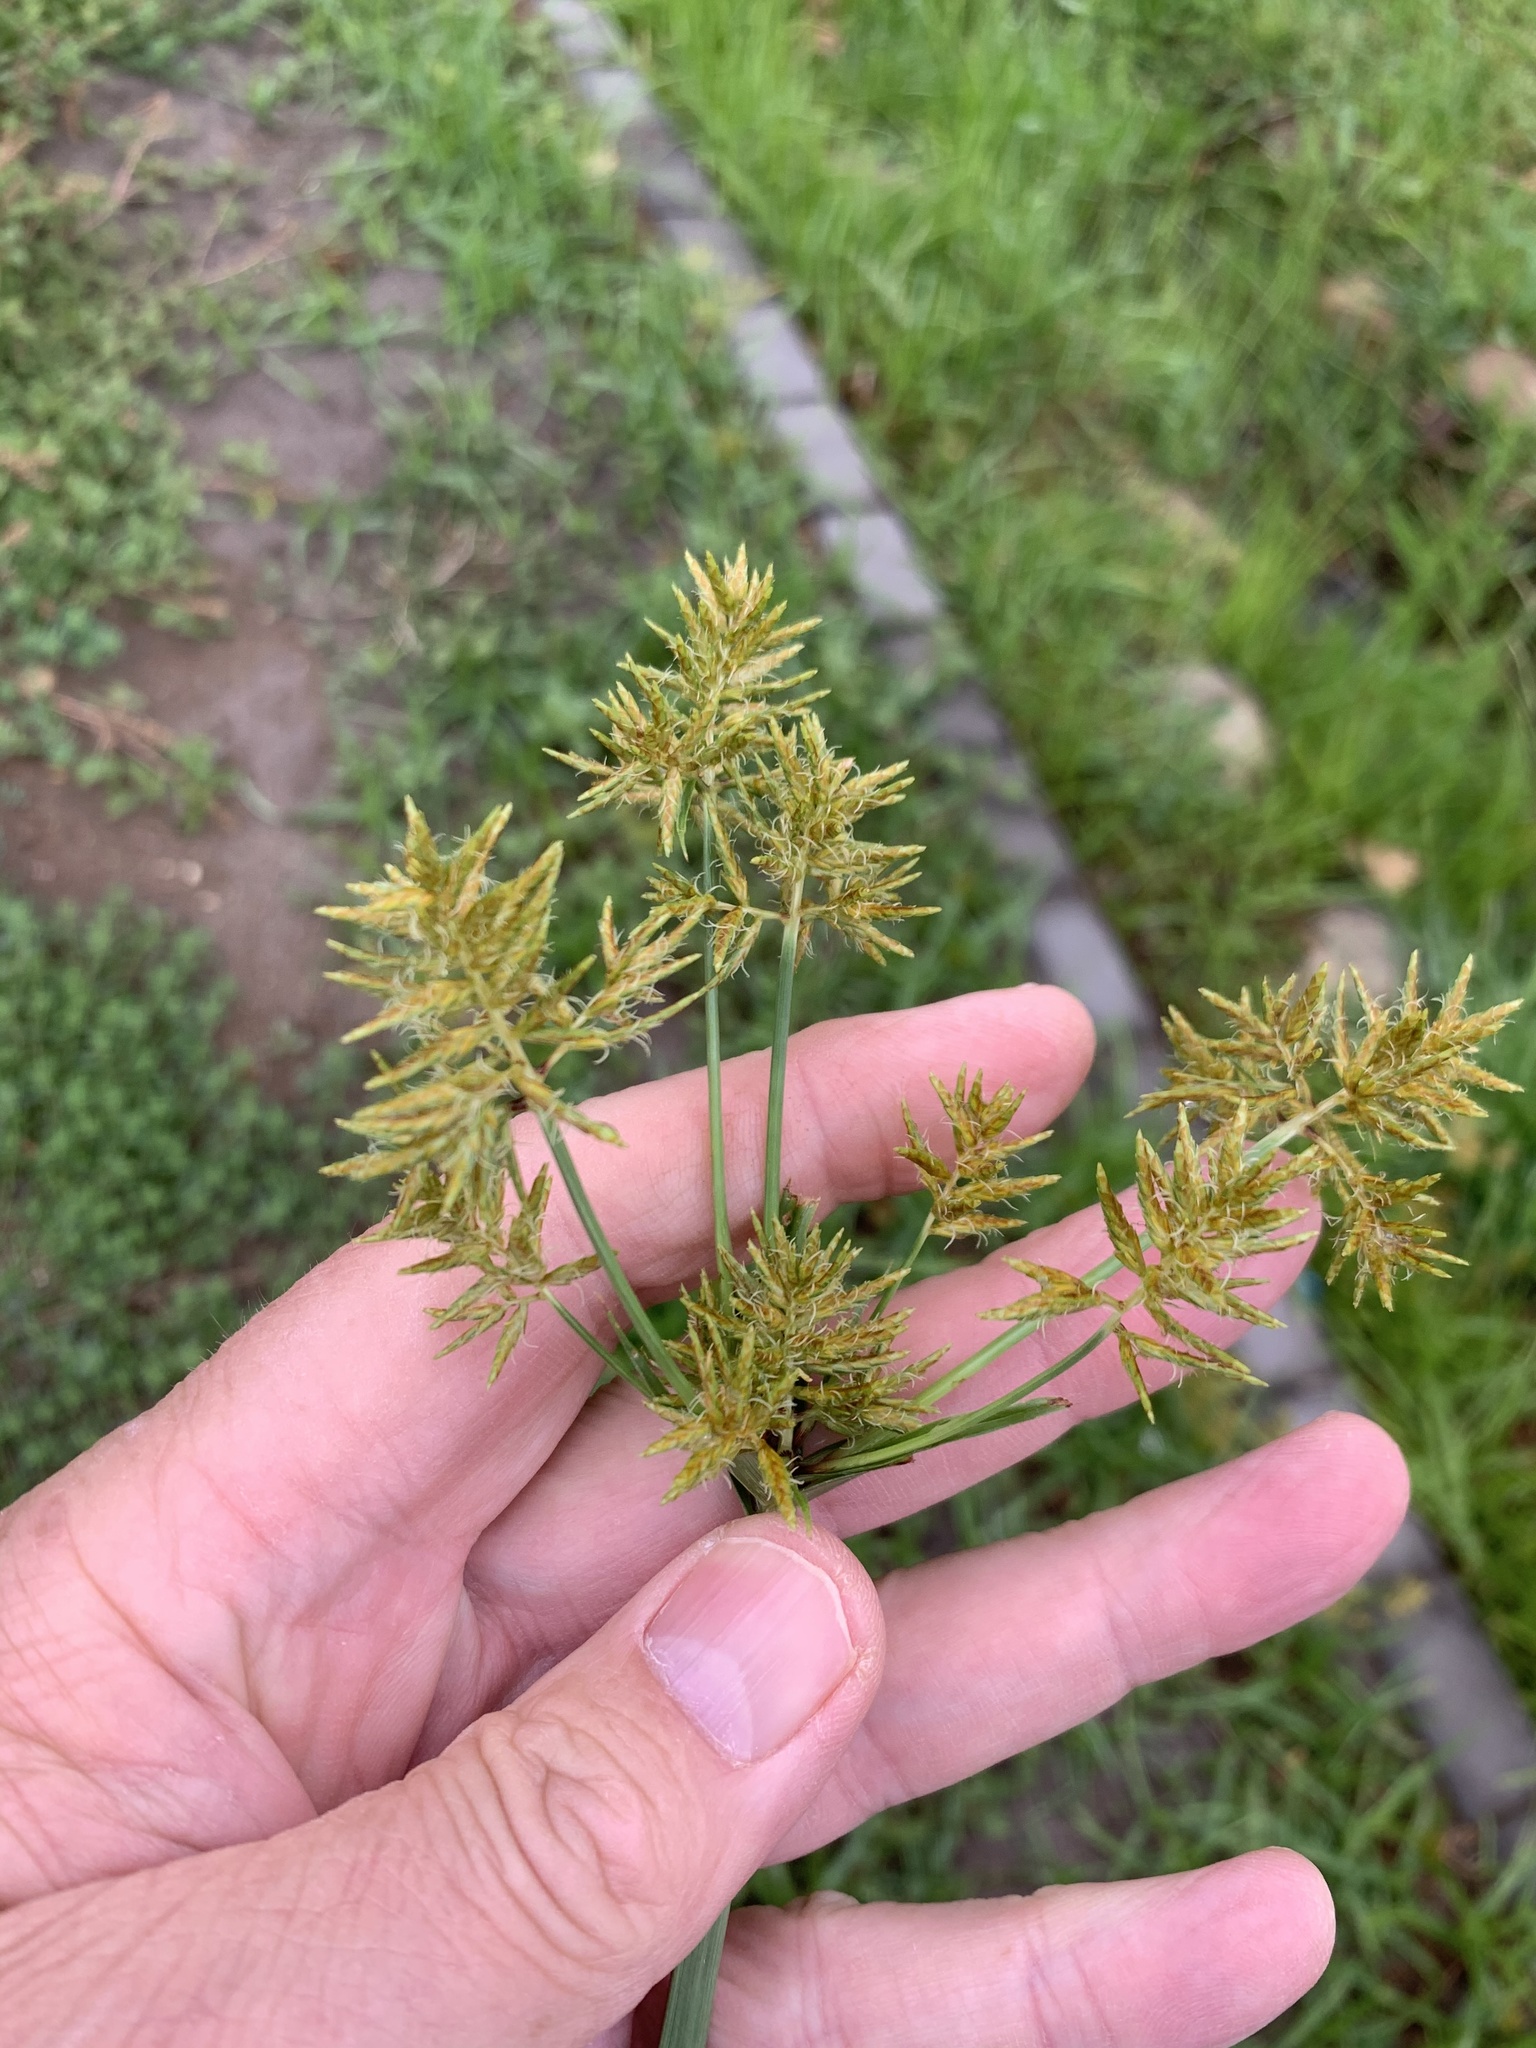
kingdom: Plantae
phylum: Tracheophyta
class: Liliopsida
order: Poales
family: Cyperaceae
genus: Cyperus
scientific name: Cyperus esculentus
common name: Yellow nutsedge
